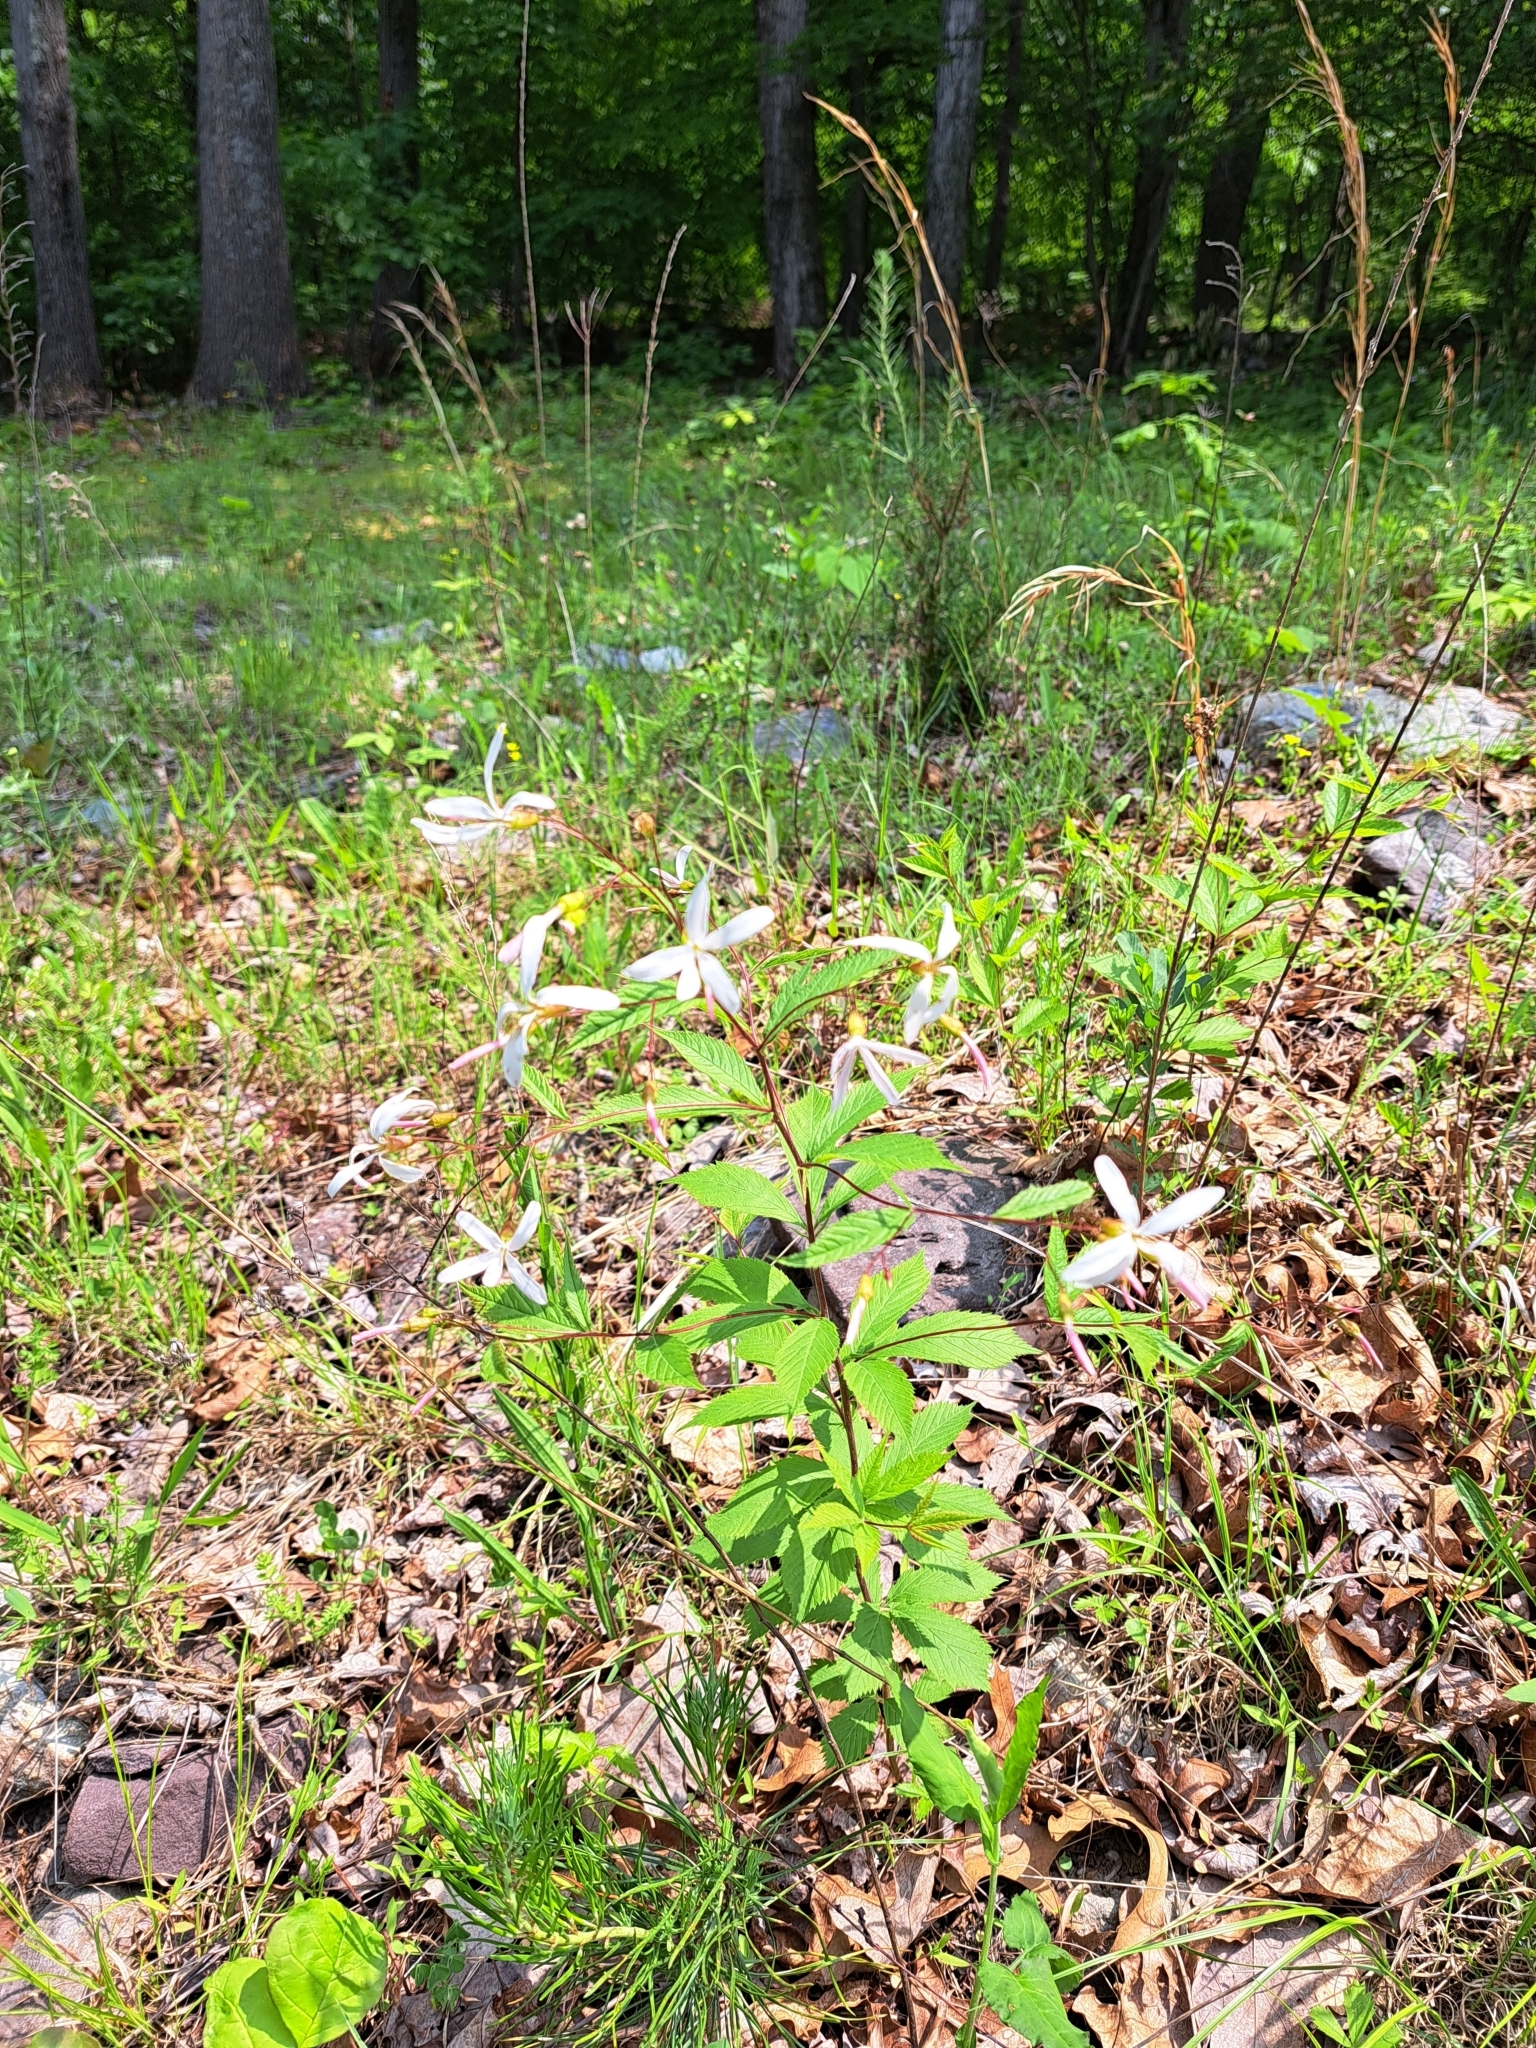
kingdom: Plantae
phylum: Tracheophyta
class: Magnoliopsida
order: Rosales
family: Rosaceae
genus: Gillenia
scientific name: Gillenia trifoliata
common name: Bowman's-root
